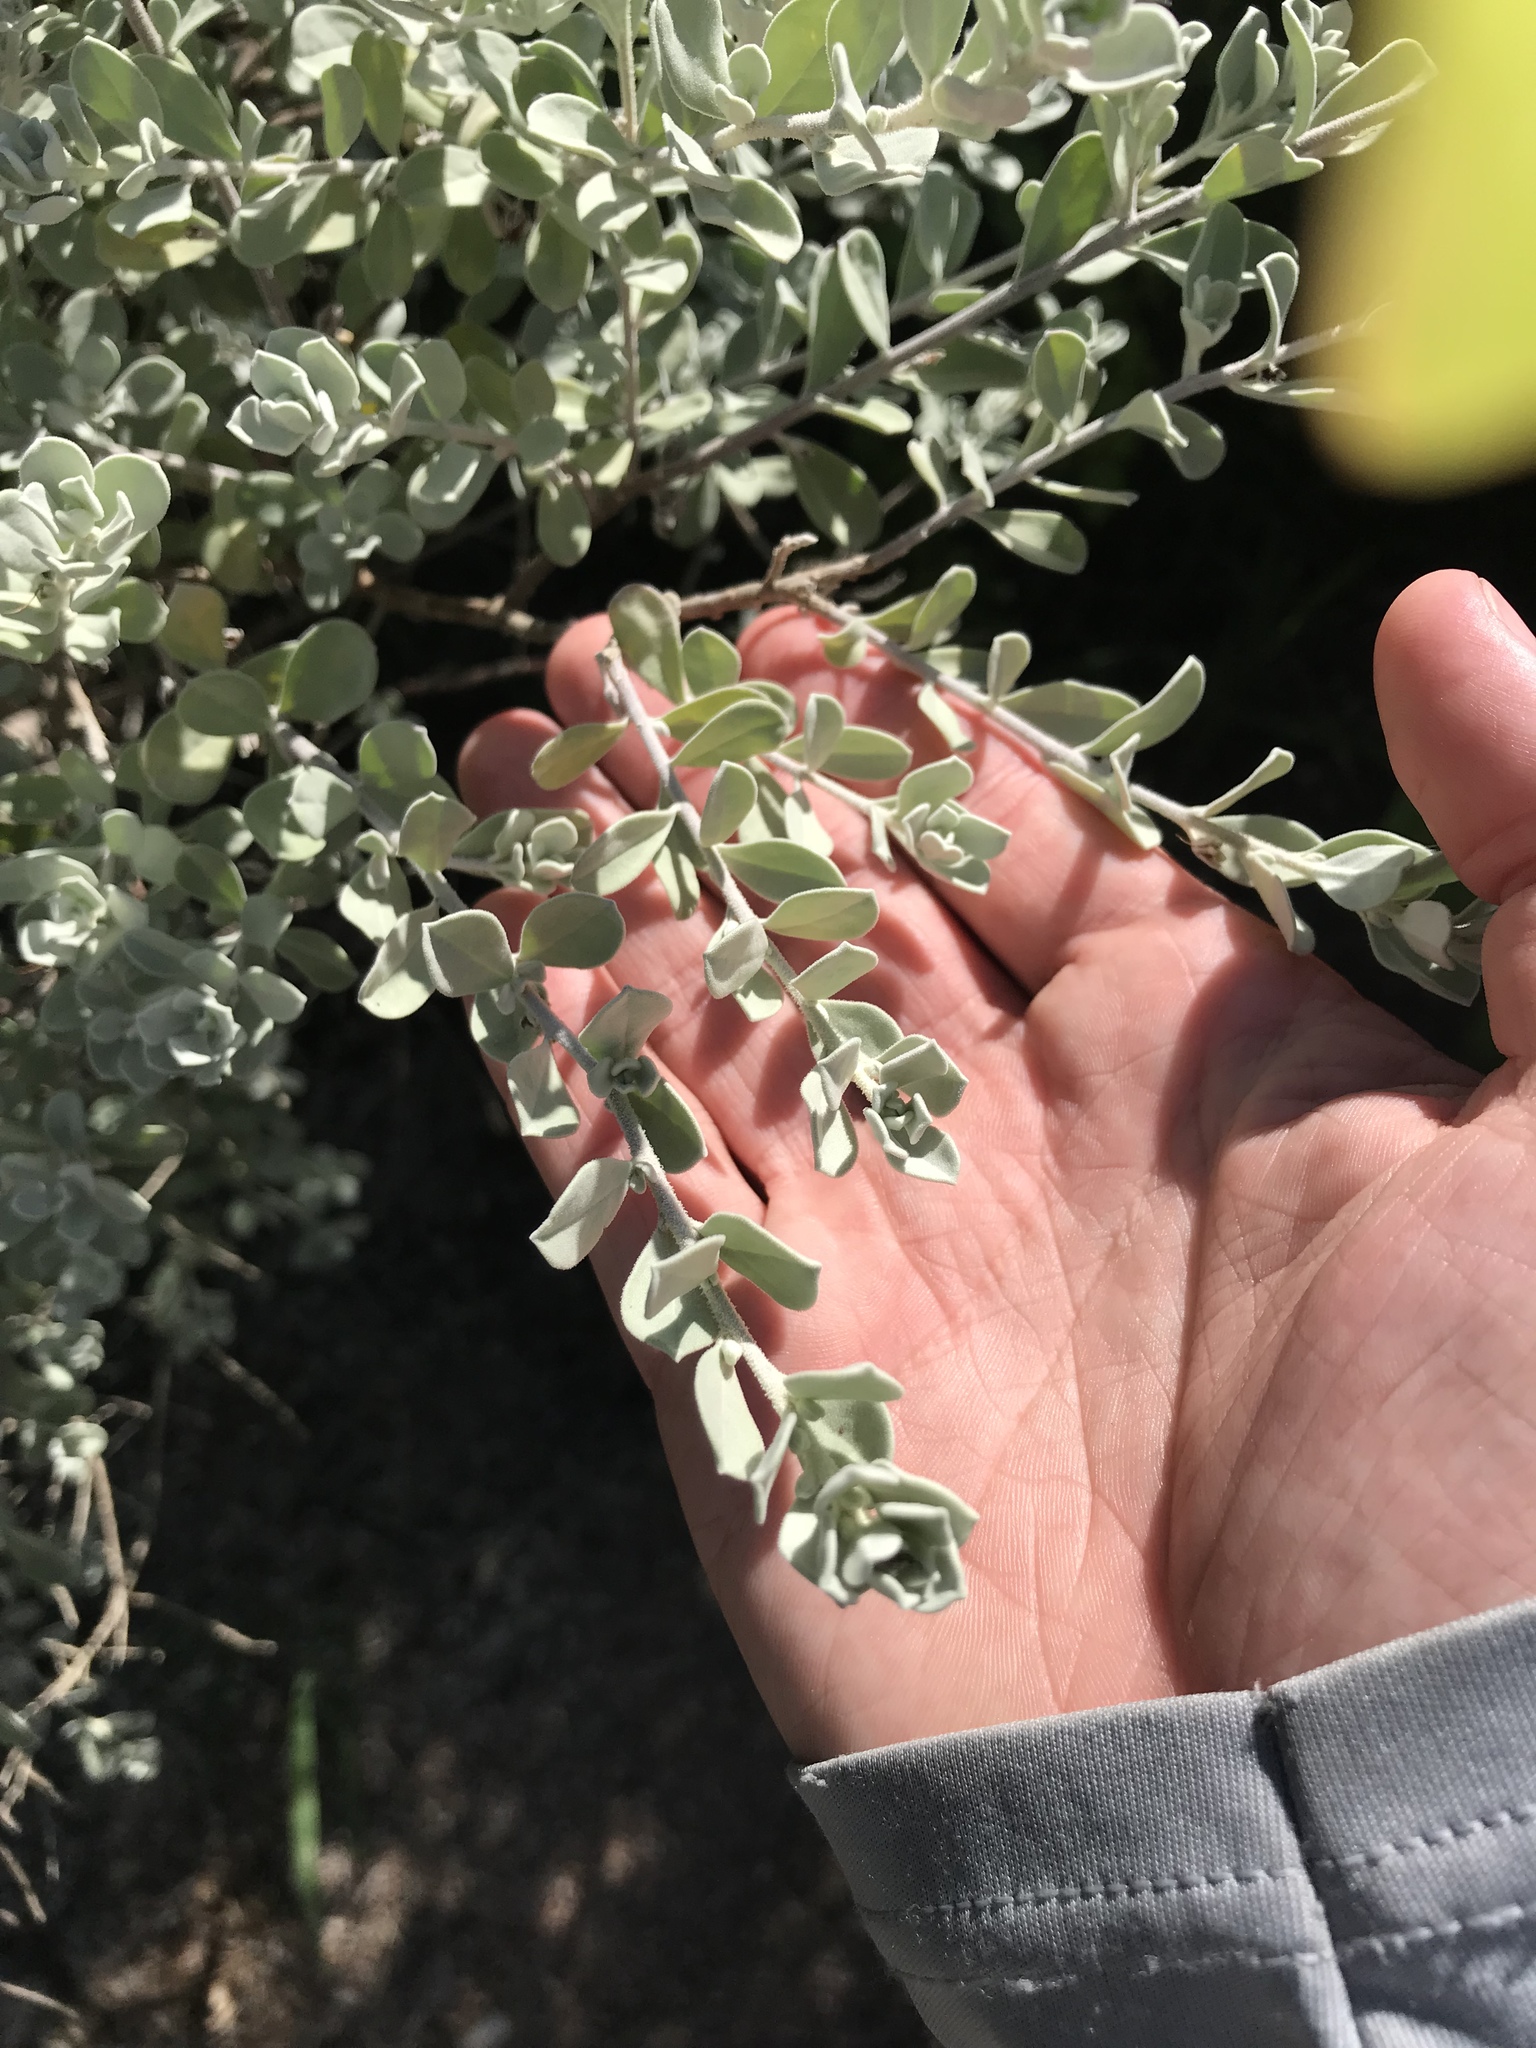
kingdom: Plantae
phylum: Tracheophyta
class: Magnoliopsida
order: Lamiales
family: Scrophulariaceae
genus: Leucophyllum
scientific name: Leucophyllum frutescens
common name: Texas silverleaf
